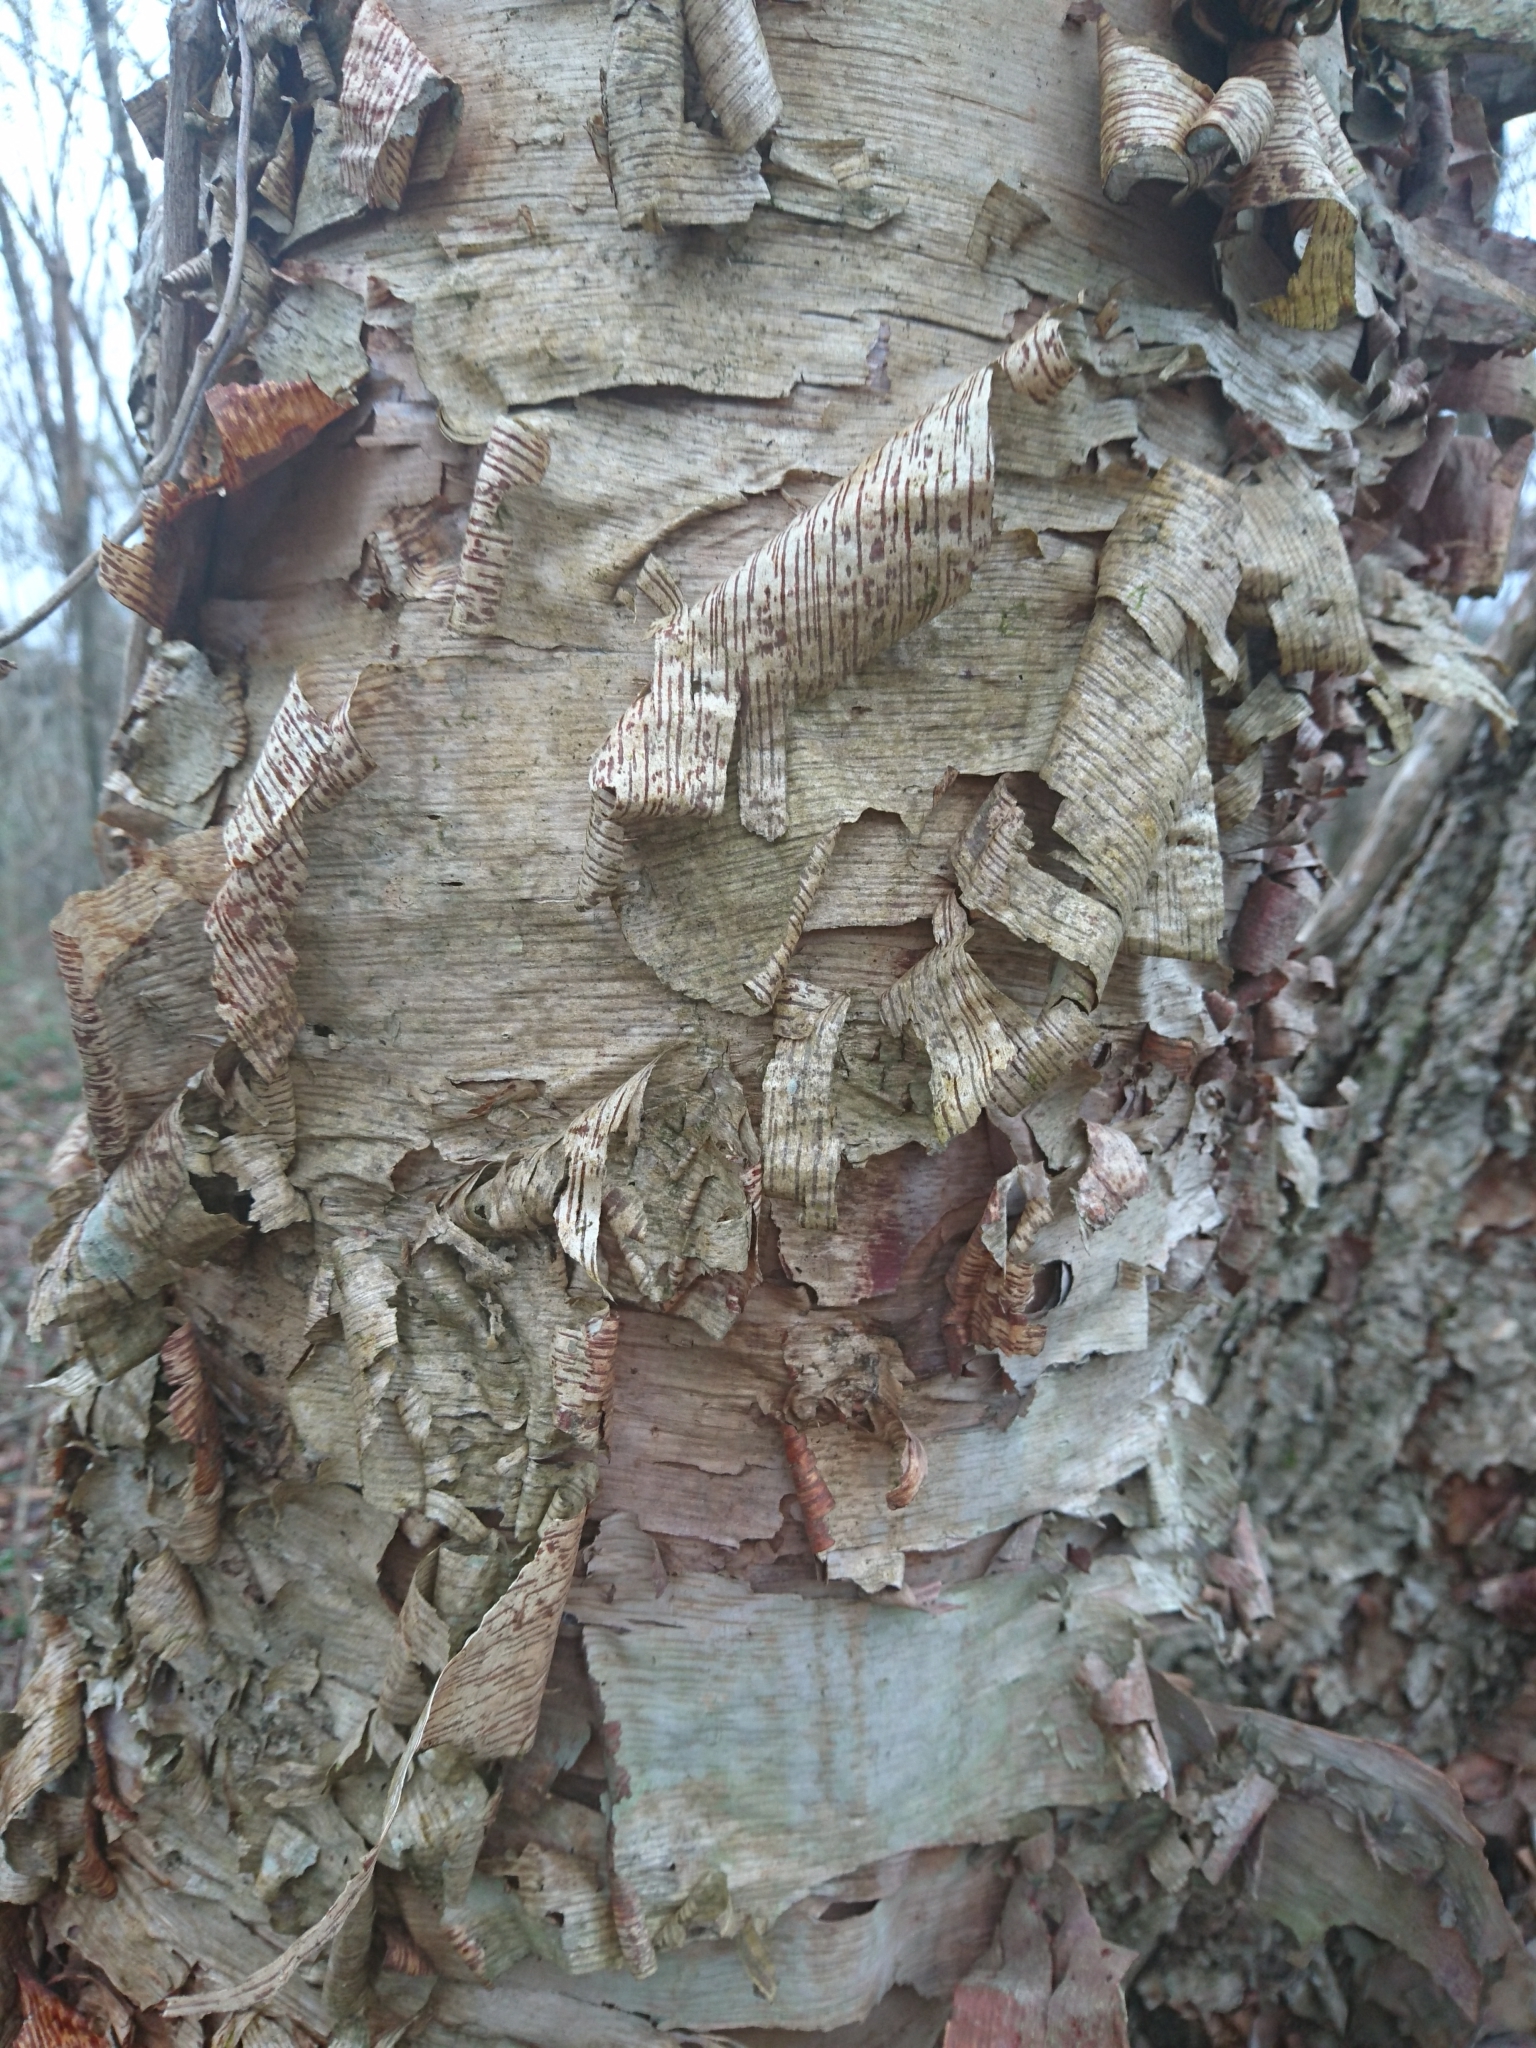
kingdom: Plantae
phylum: Tracheophyta
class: Magnoliopsida
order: Fagales
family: Betulaceae
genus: Betula
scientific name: Betula nigra
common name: Black birch
